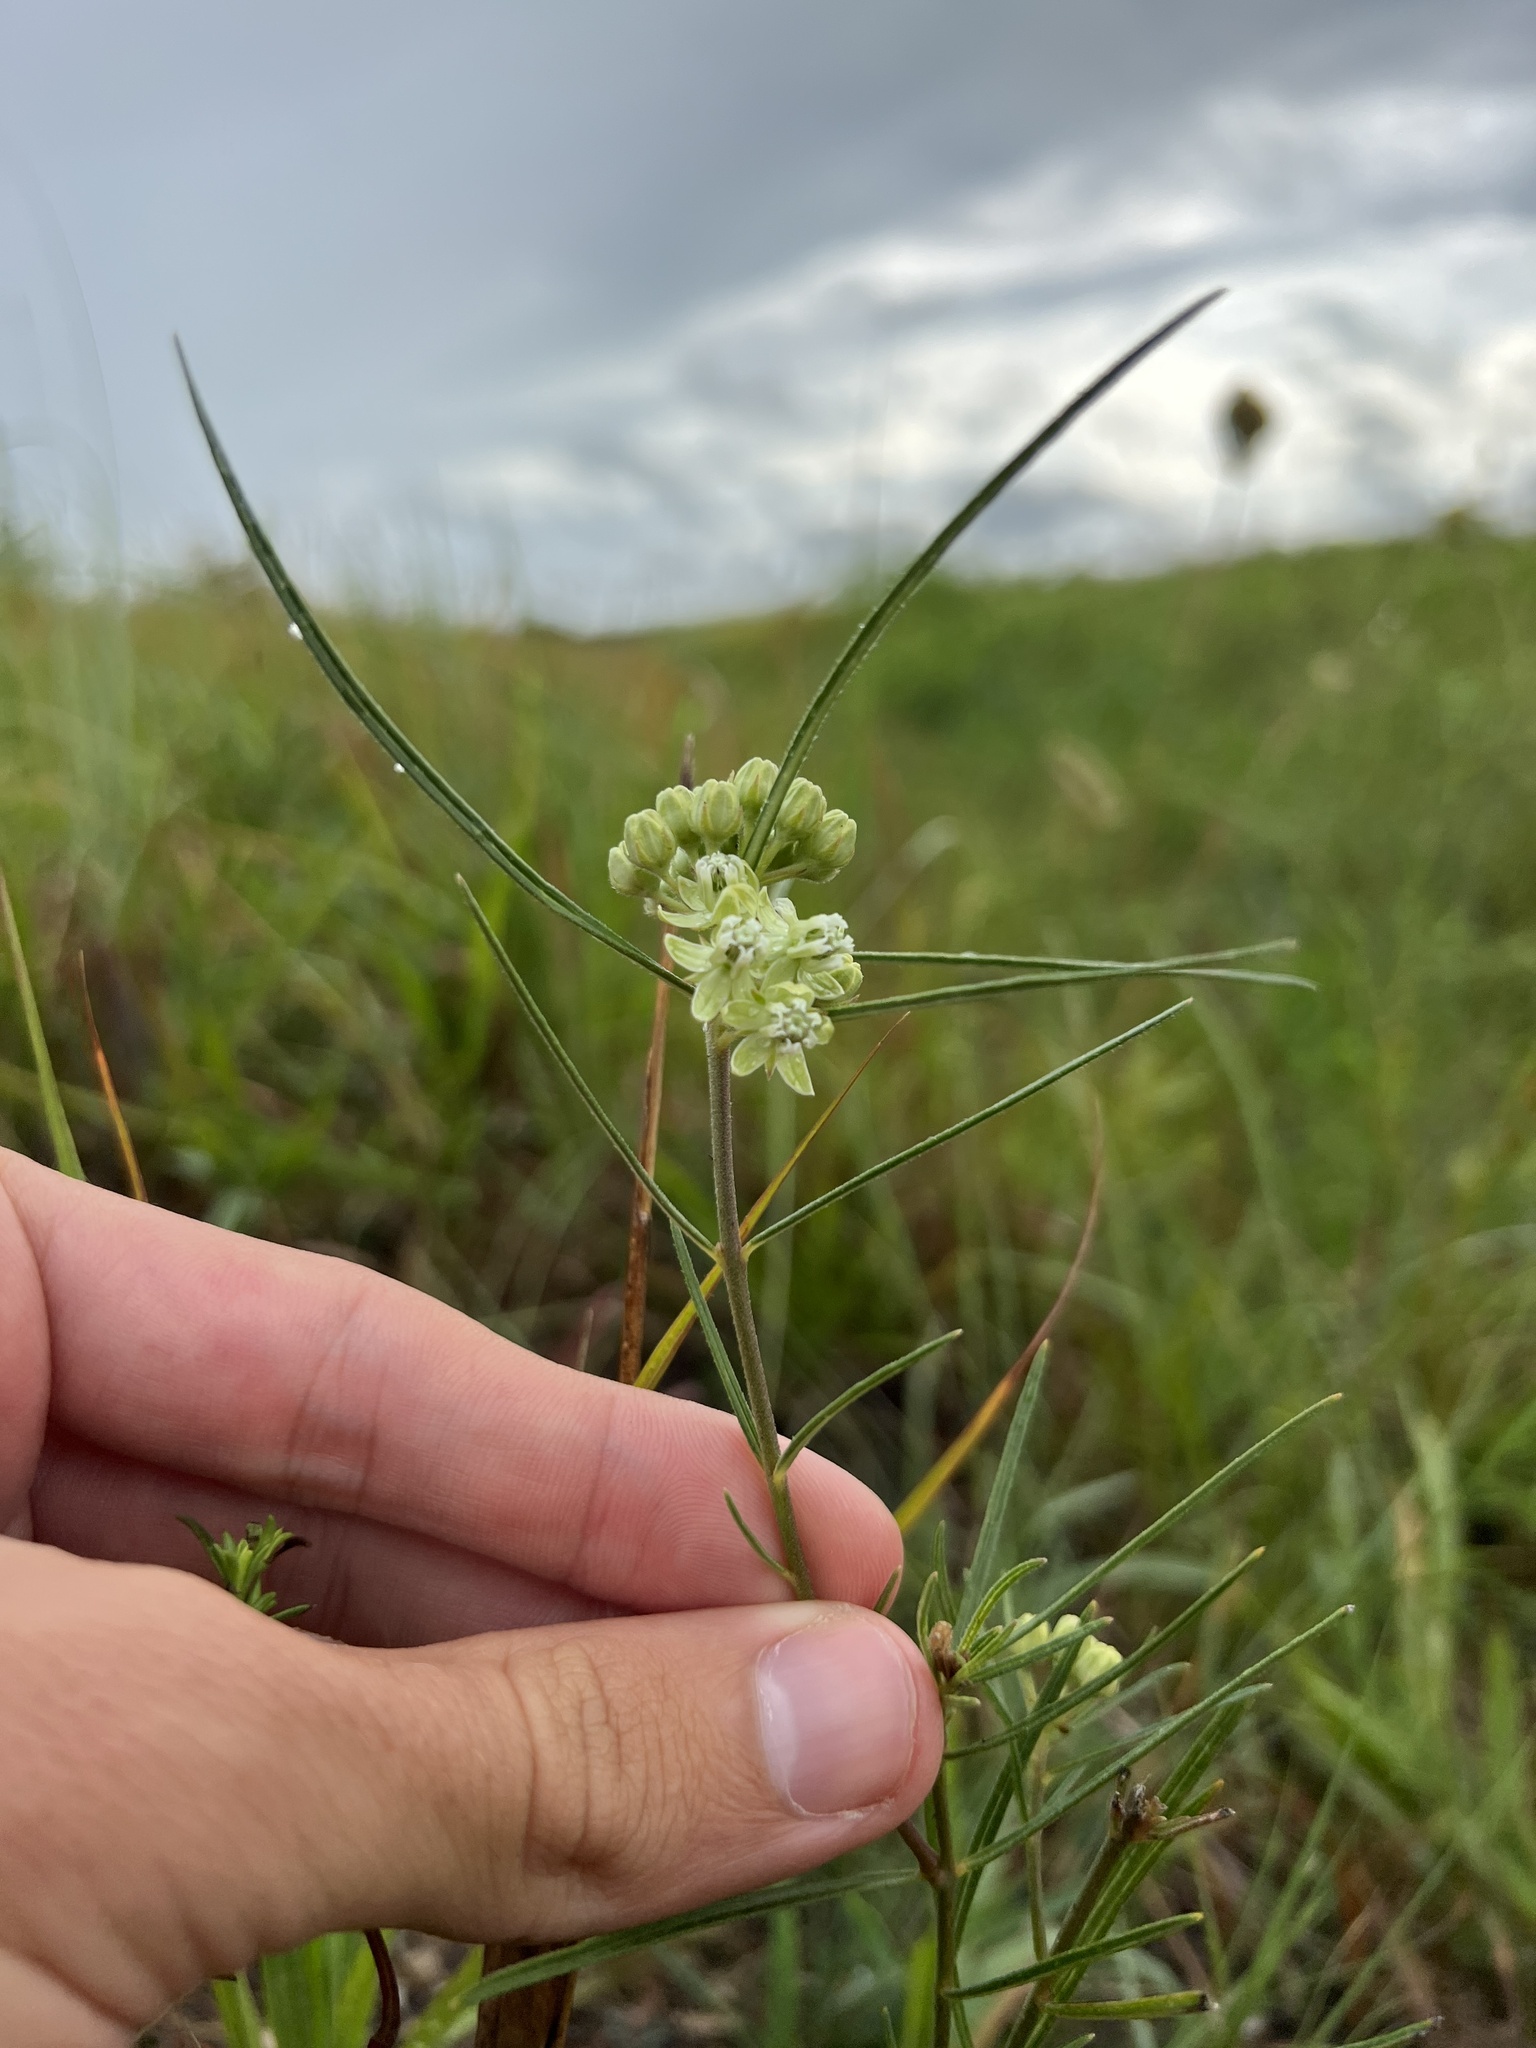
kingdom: Plantae
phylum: Tracheophyta
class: Magnoliopsida
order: Gentianales
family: Apocynaceae
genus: Asclepias
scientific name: Asclepias stenophylla
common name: Narrow-leaf milkweed
